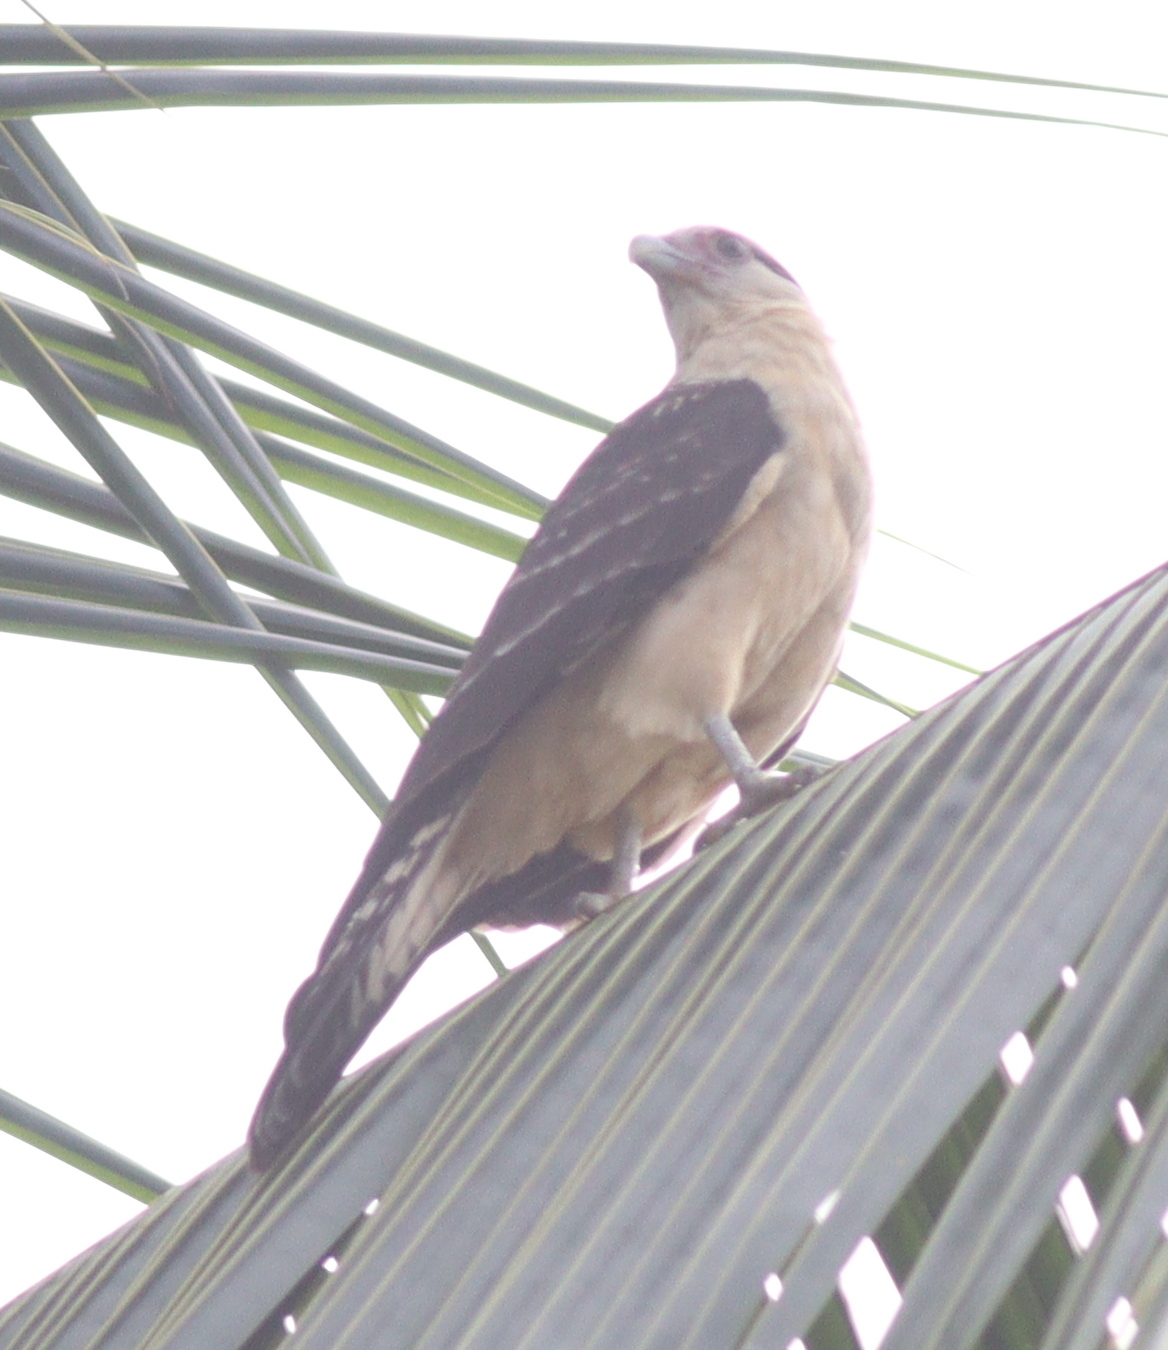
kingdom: Animalia
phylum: Chordata
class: Aves
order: Falconiformes
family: Falconidae
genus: Daptrius
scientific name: Daptrius
